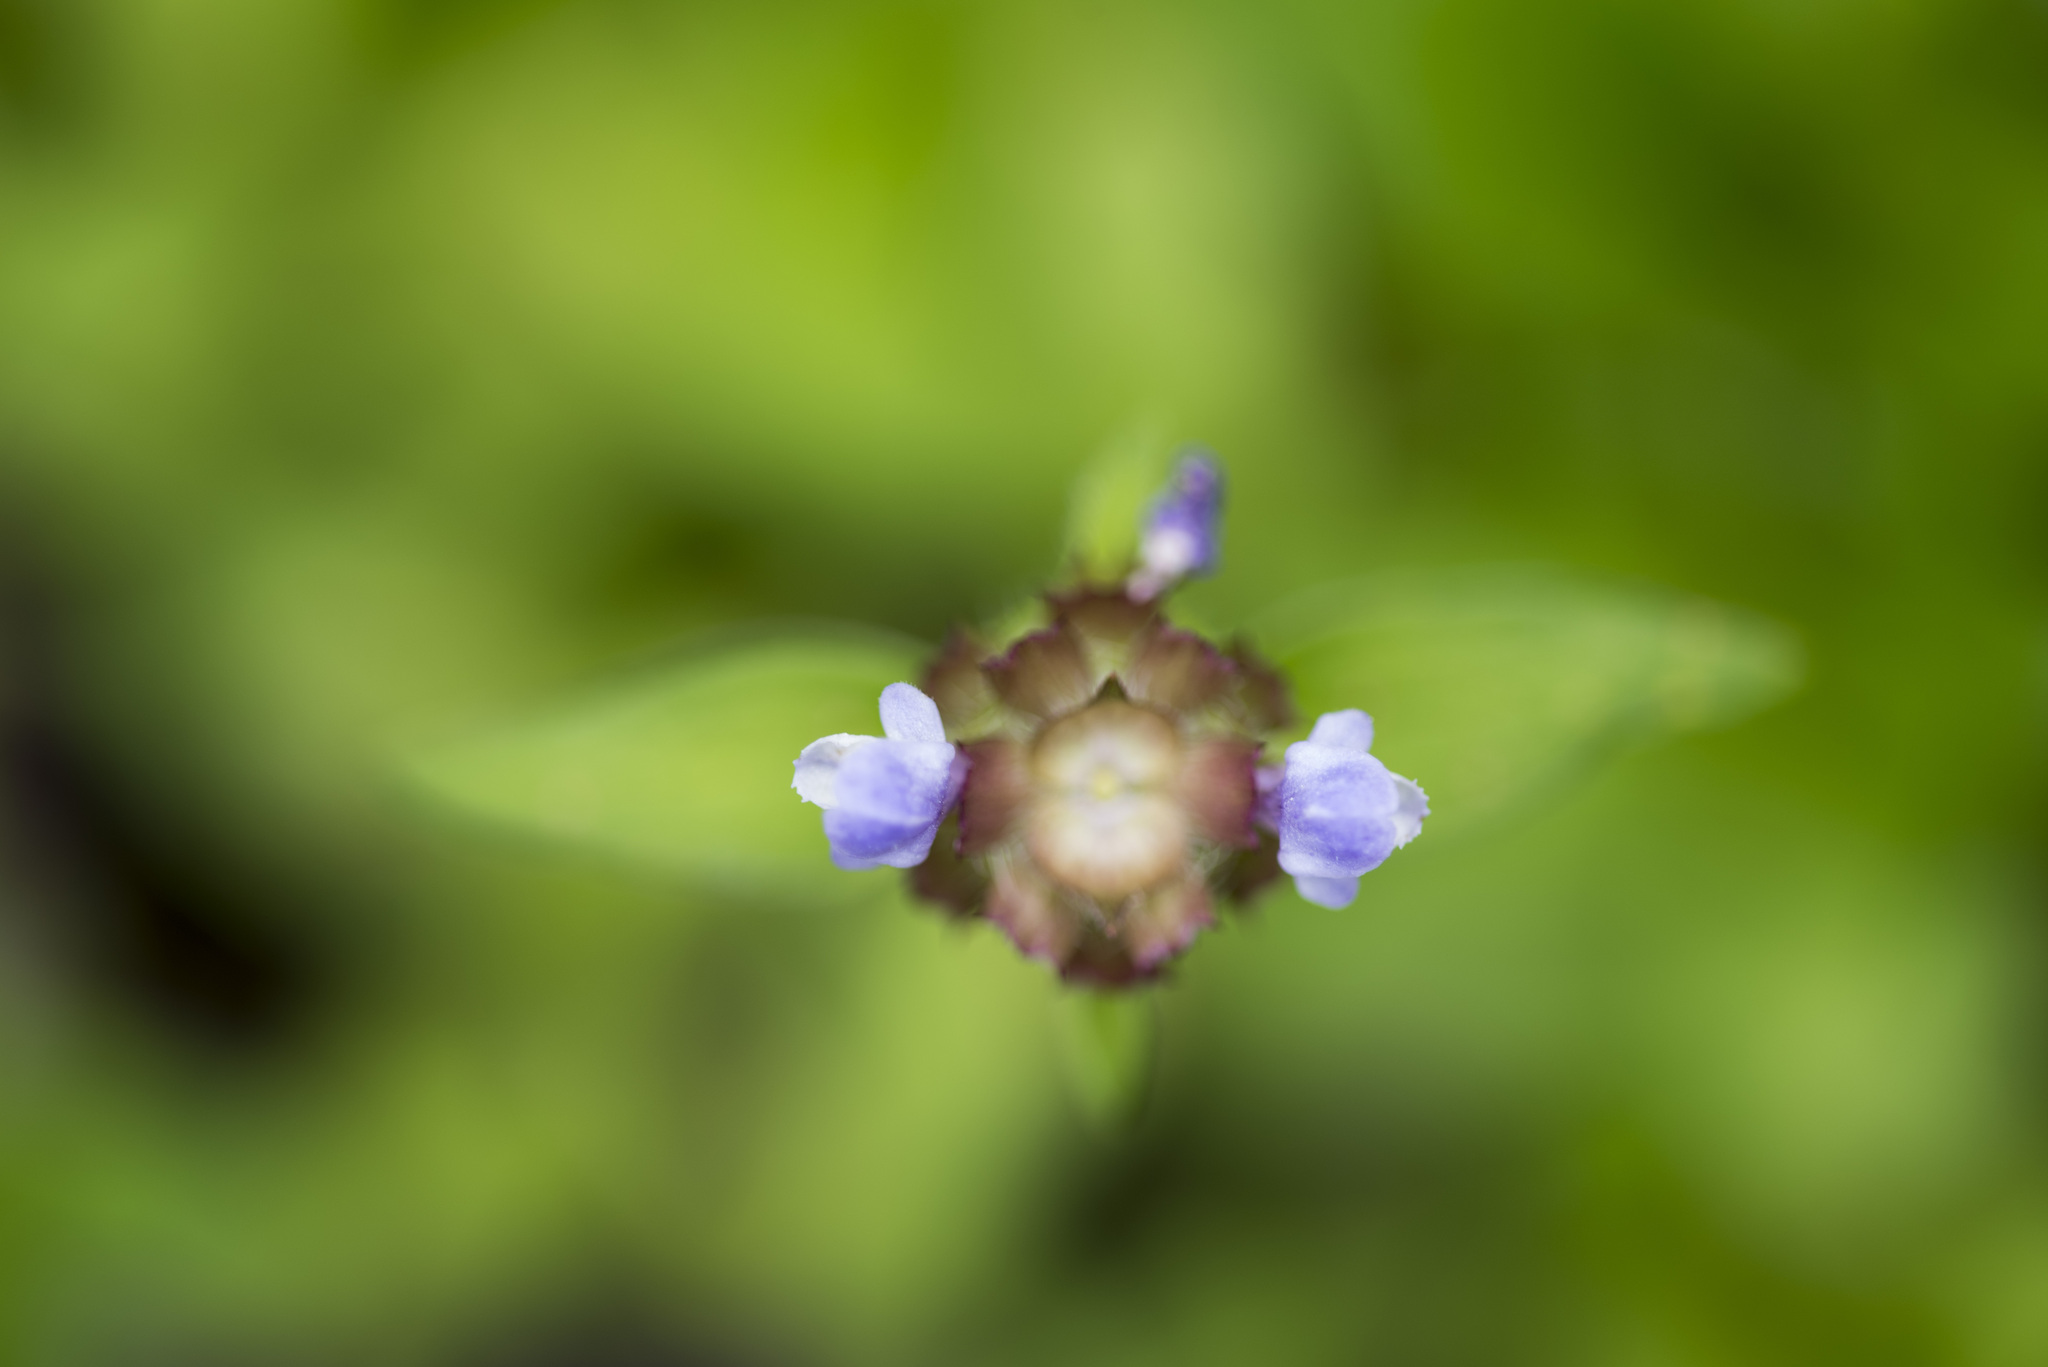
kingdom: Plantae
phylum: Tracheophyta
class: Magnoliopsida
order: Lamiales
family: Lamiaceae
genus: Prunella
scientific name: Prunella vulgaris
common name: Heal-all
